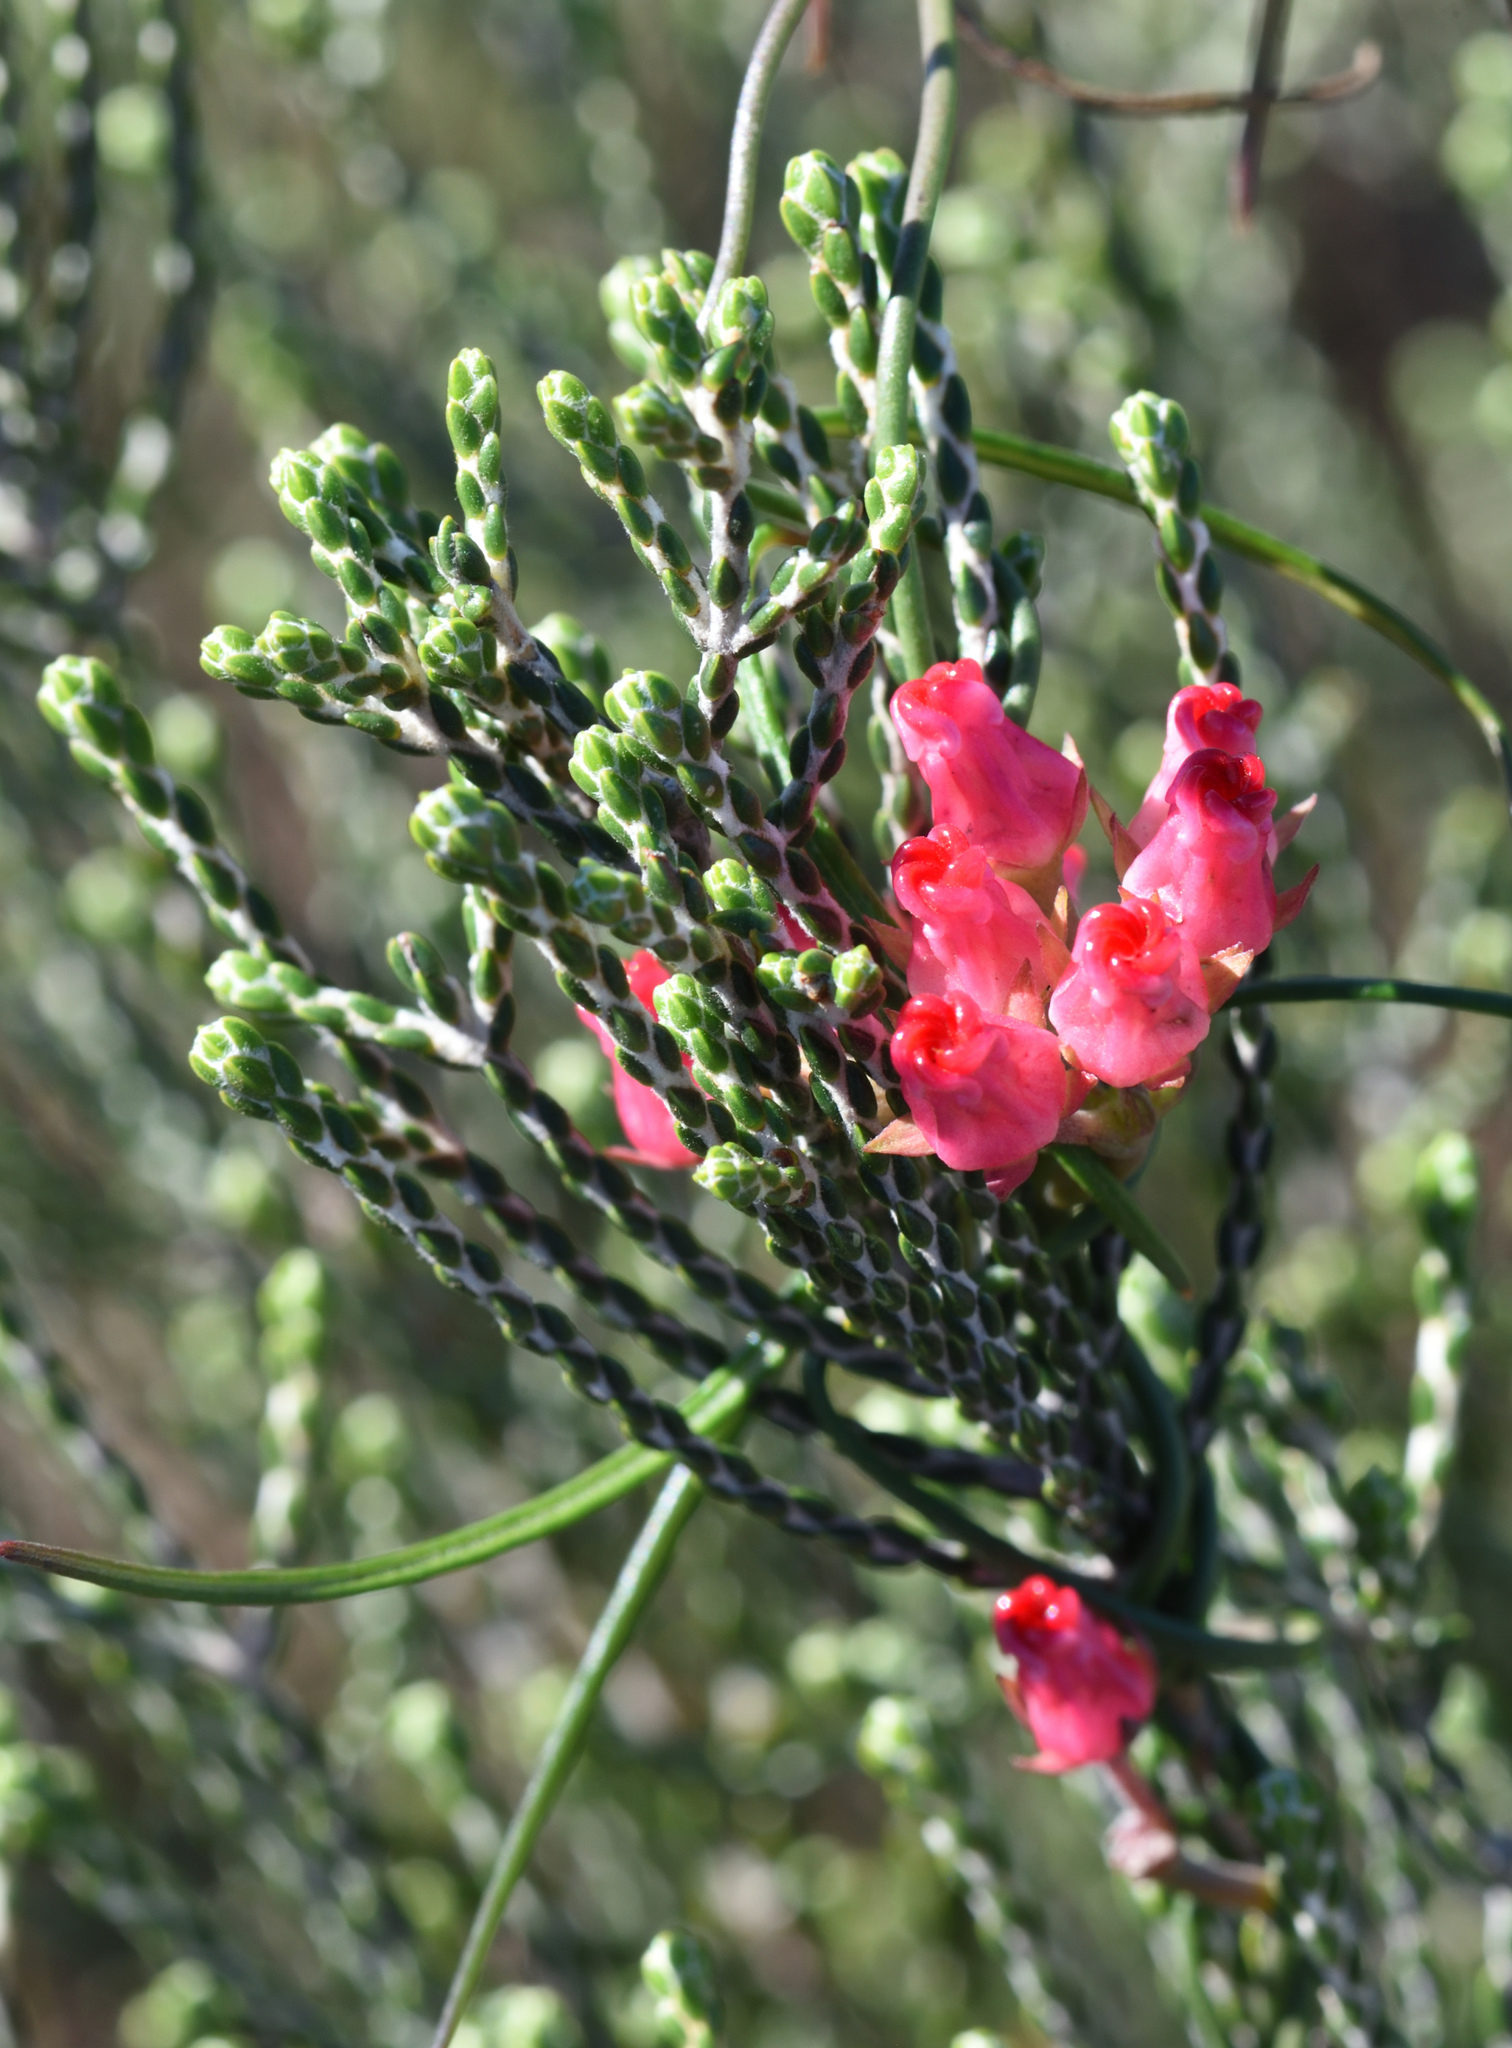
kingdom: Plantae
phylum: Tracheophyta
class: Magnoliopsida
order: Gentianales
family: Apocynaceae
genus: Microloma
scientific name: Microloma tenuifolium
